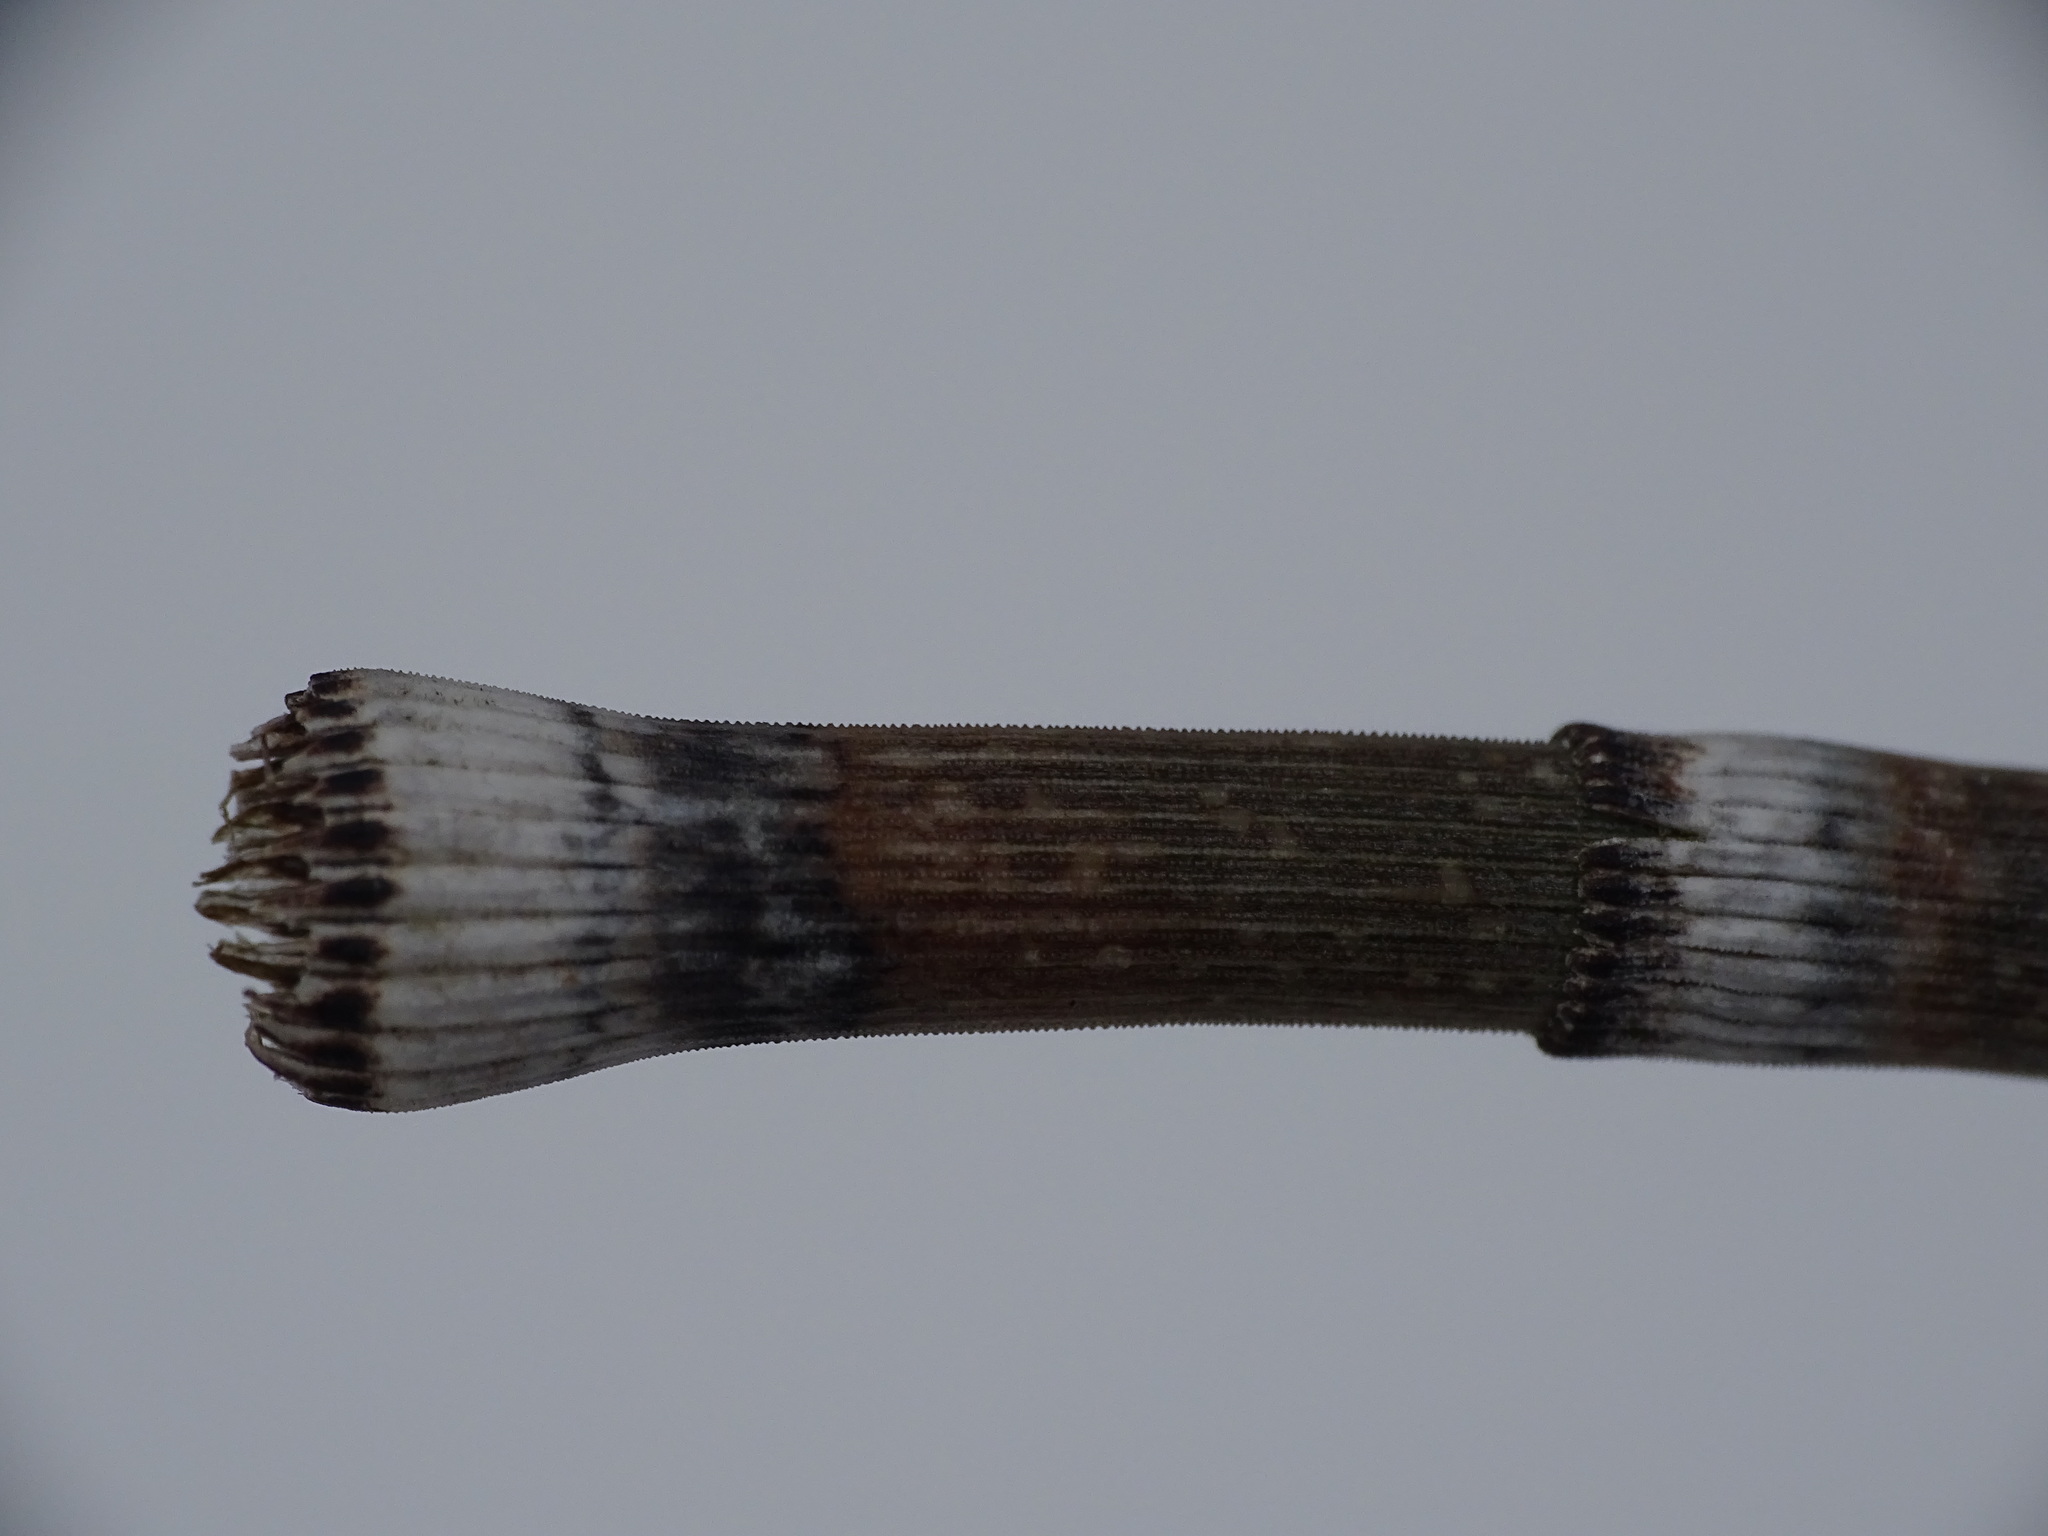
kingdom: Plantae
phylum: Tracheophyta
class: Polypodiopsida
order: Equisetales
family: Equisetaceae
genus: Equisetum
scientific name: Equisetum praealtum
